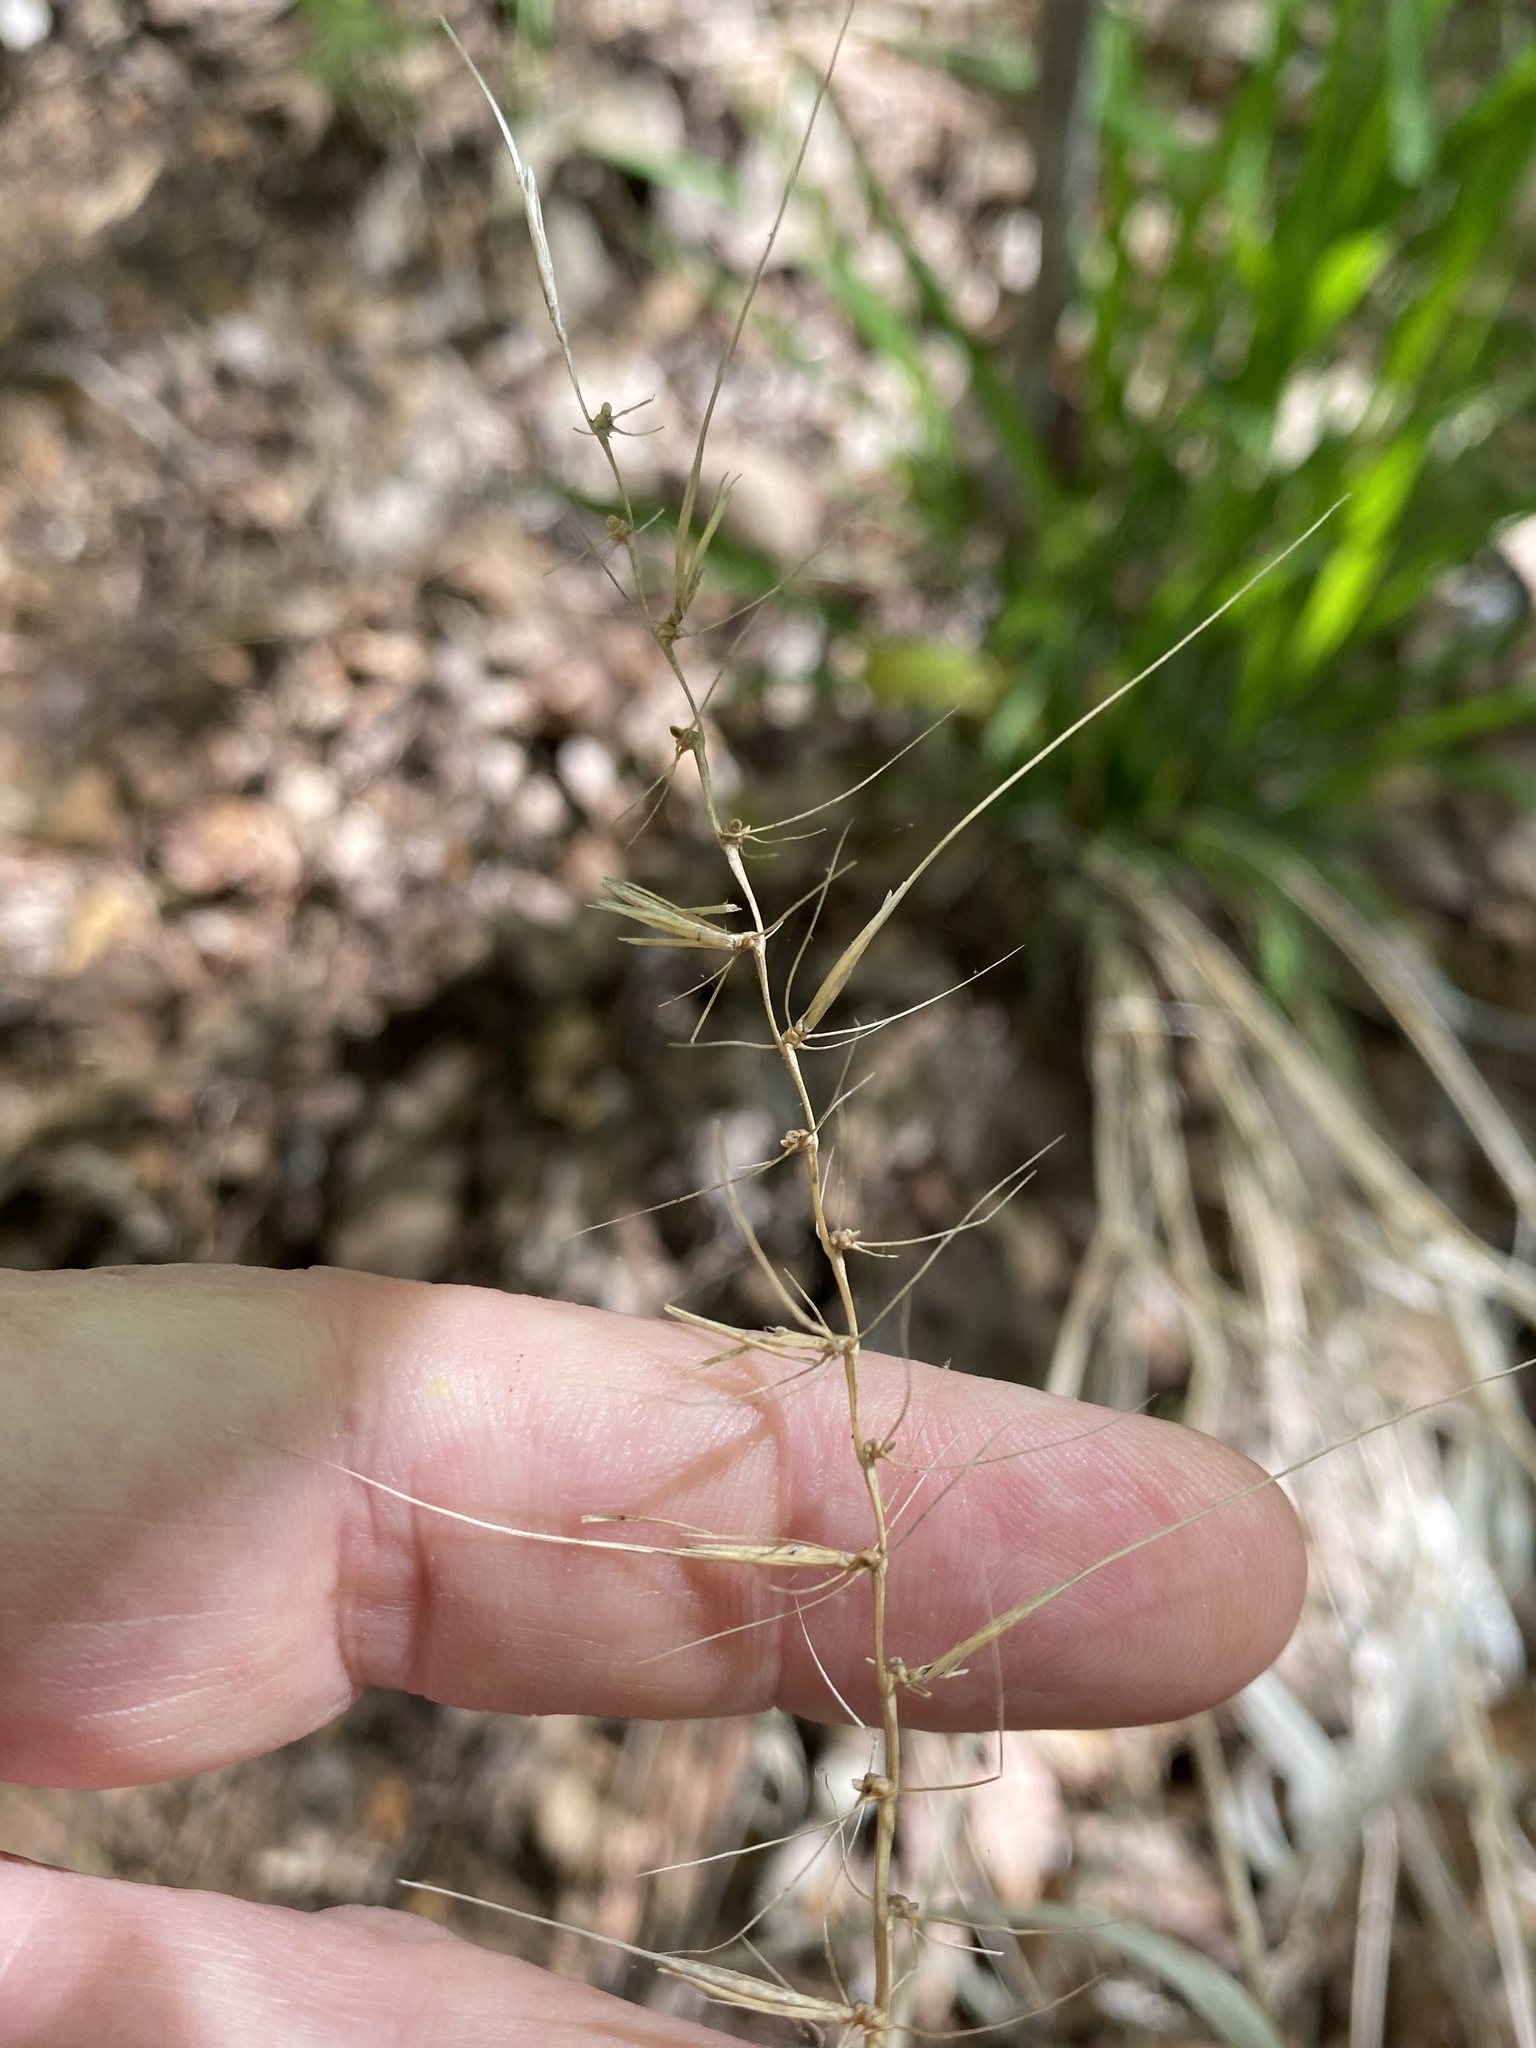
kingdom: Plantae
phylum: Tracheophyta
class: Liliopsida
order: Poales
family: Poaceae
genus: Elymus
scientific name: Elymus hystrix
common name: Bottlebrush grass
